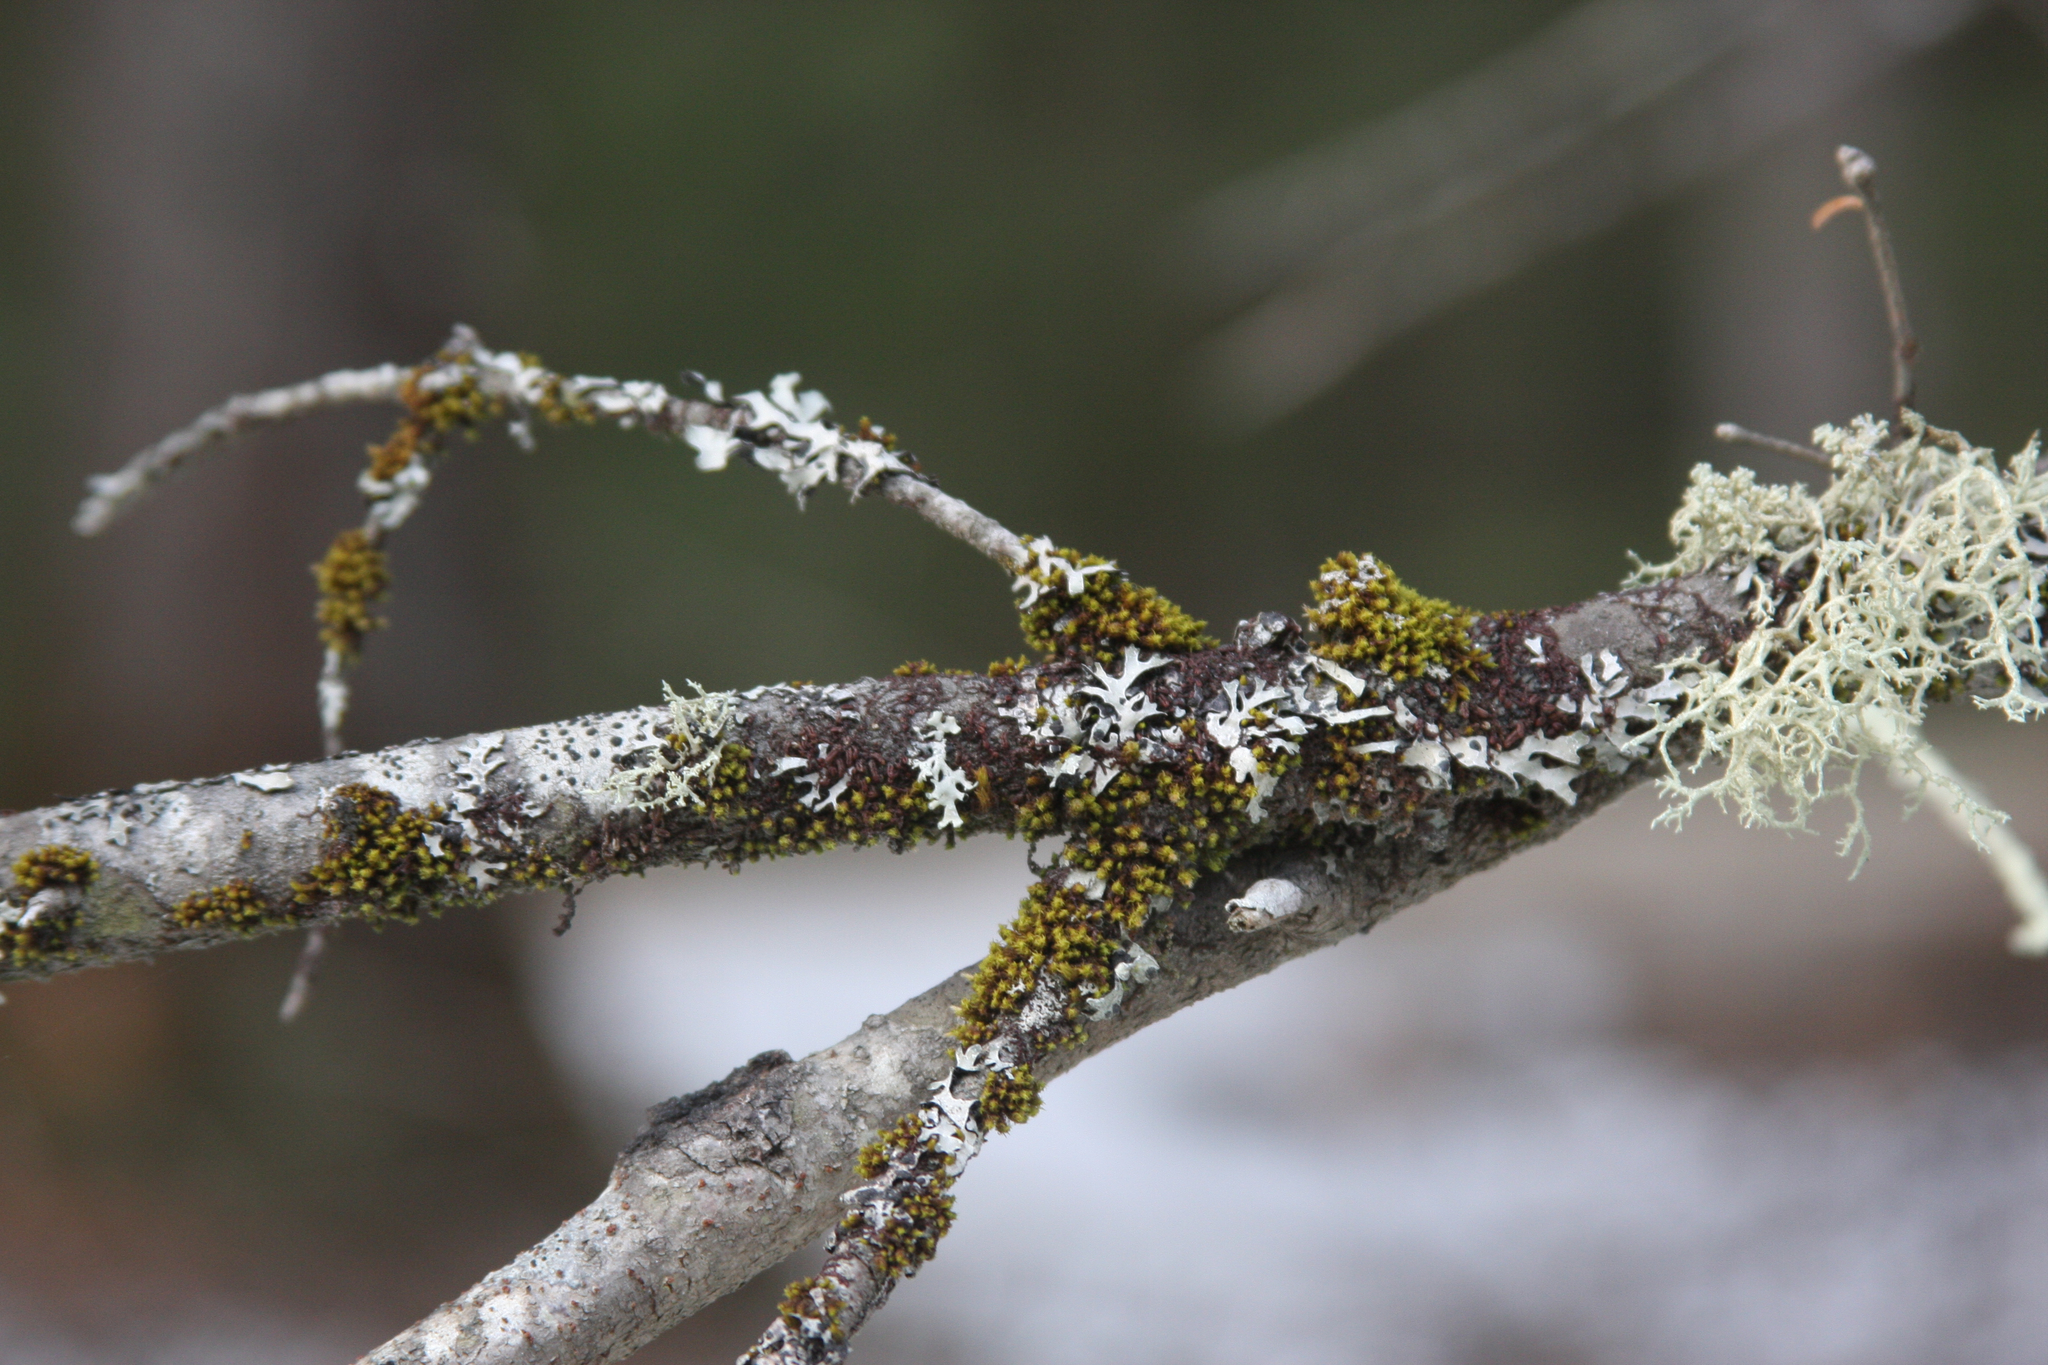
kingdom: Plantae
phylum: Bryophyta
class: Bryopsida
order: Orthotrichales
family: Orthotrichaceae
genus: Ulota
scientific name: Ulota crispa
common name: Crisped pincushion moss
